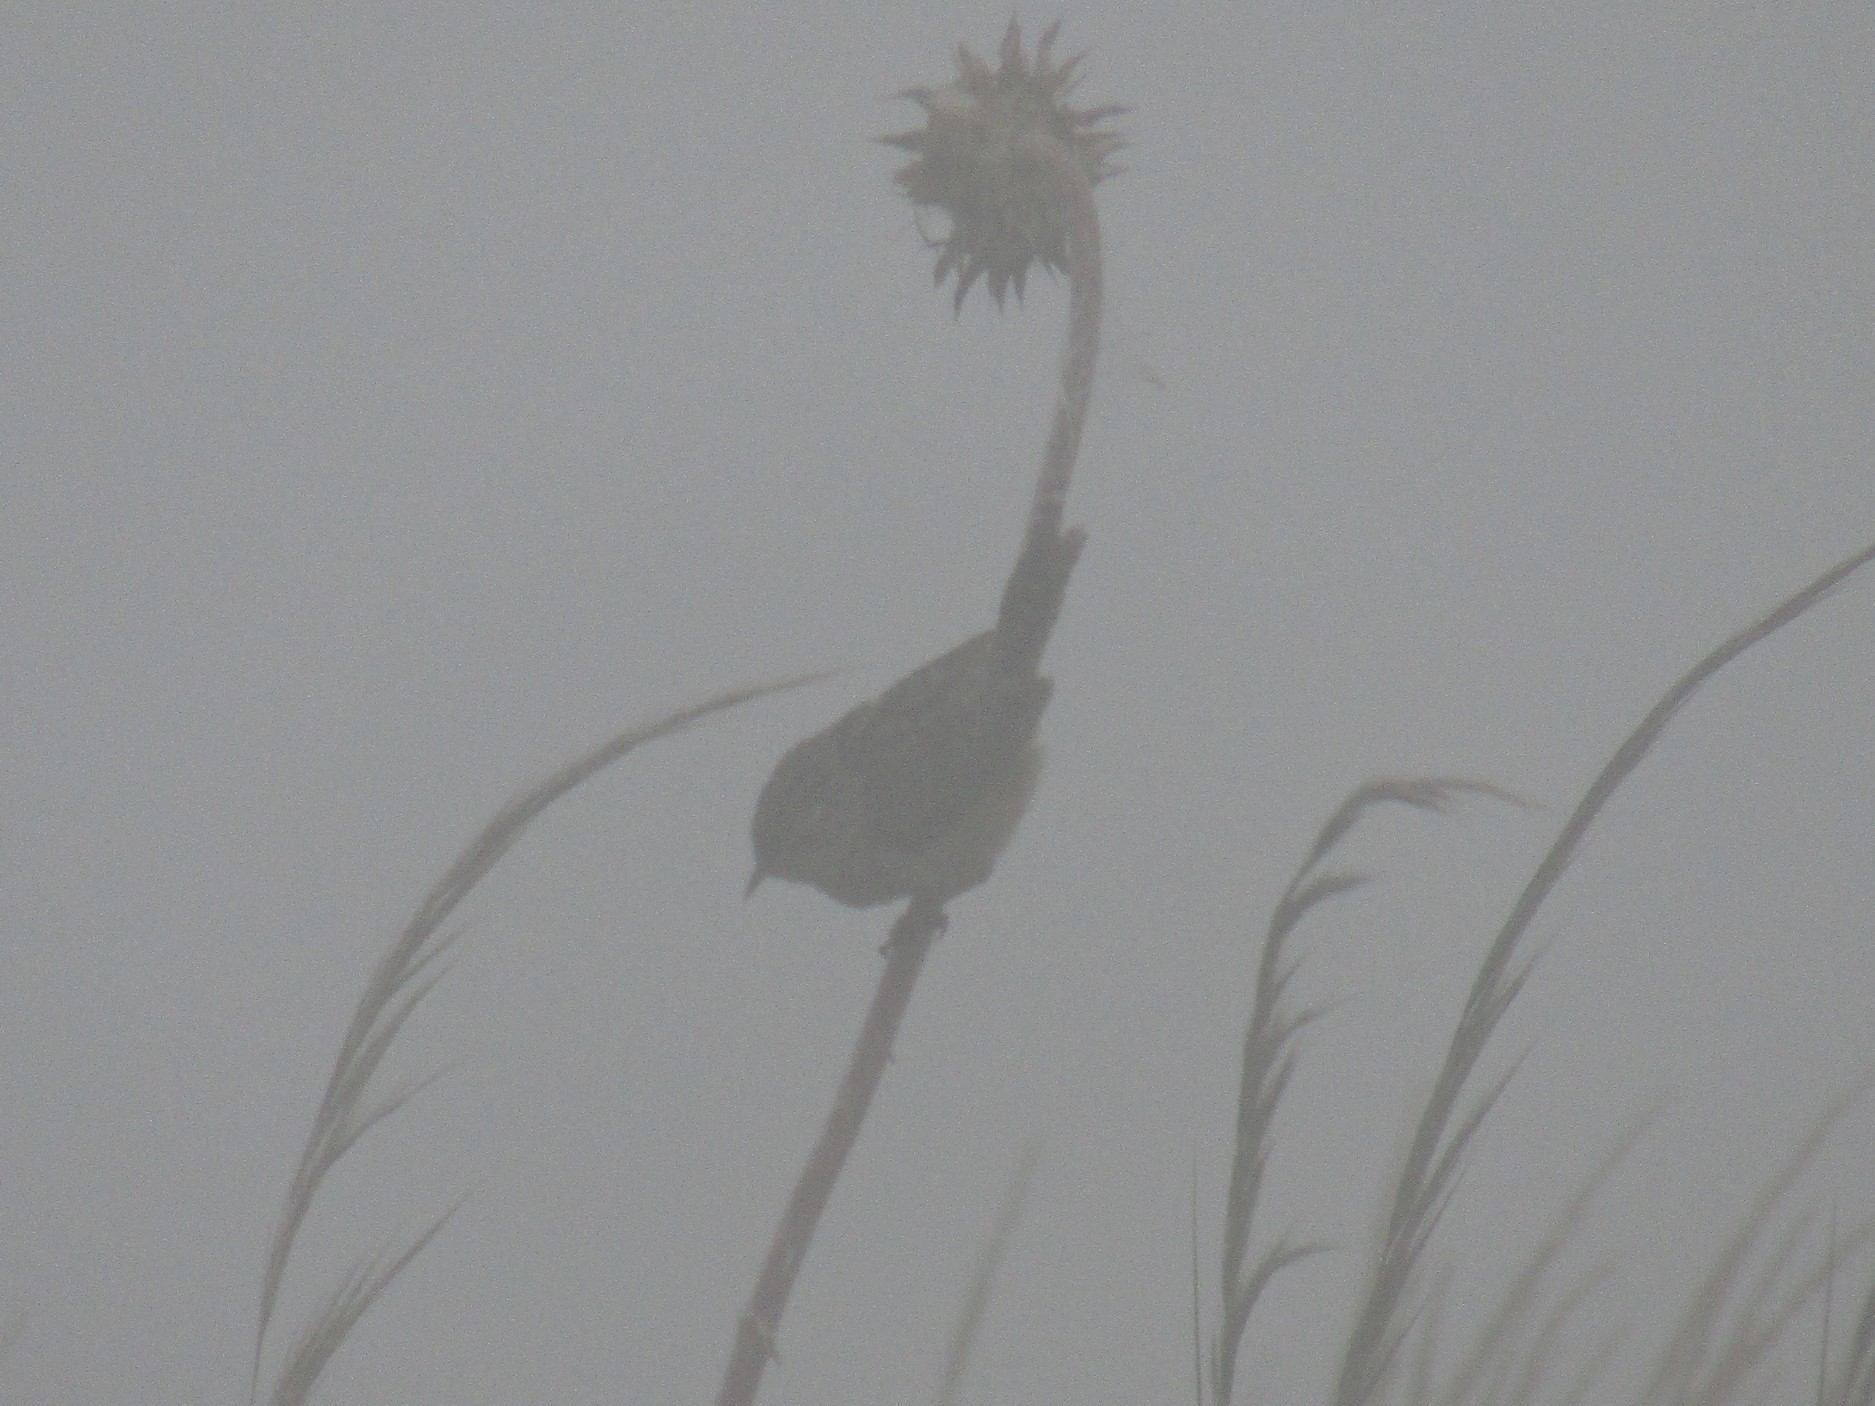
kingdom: Animalia
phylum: Chordata
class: Aves
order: Passeriformes
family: Troglodytidae
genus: Cistothorus
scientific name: Cistothorus platensis
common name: Sedge wren
